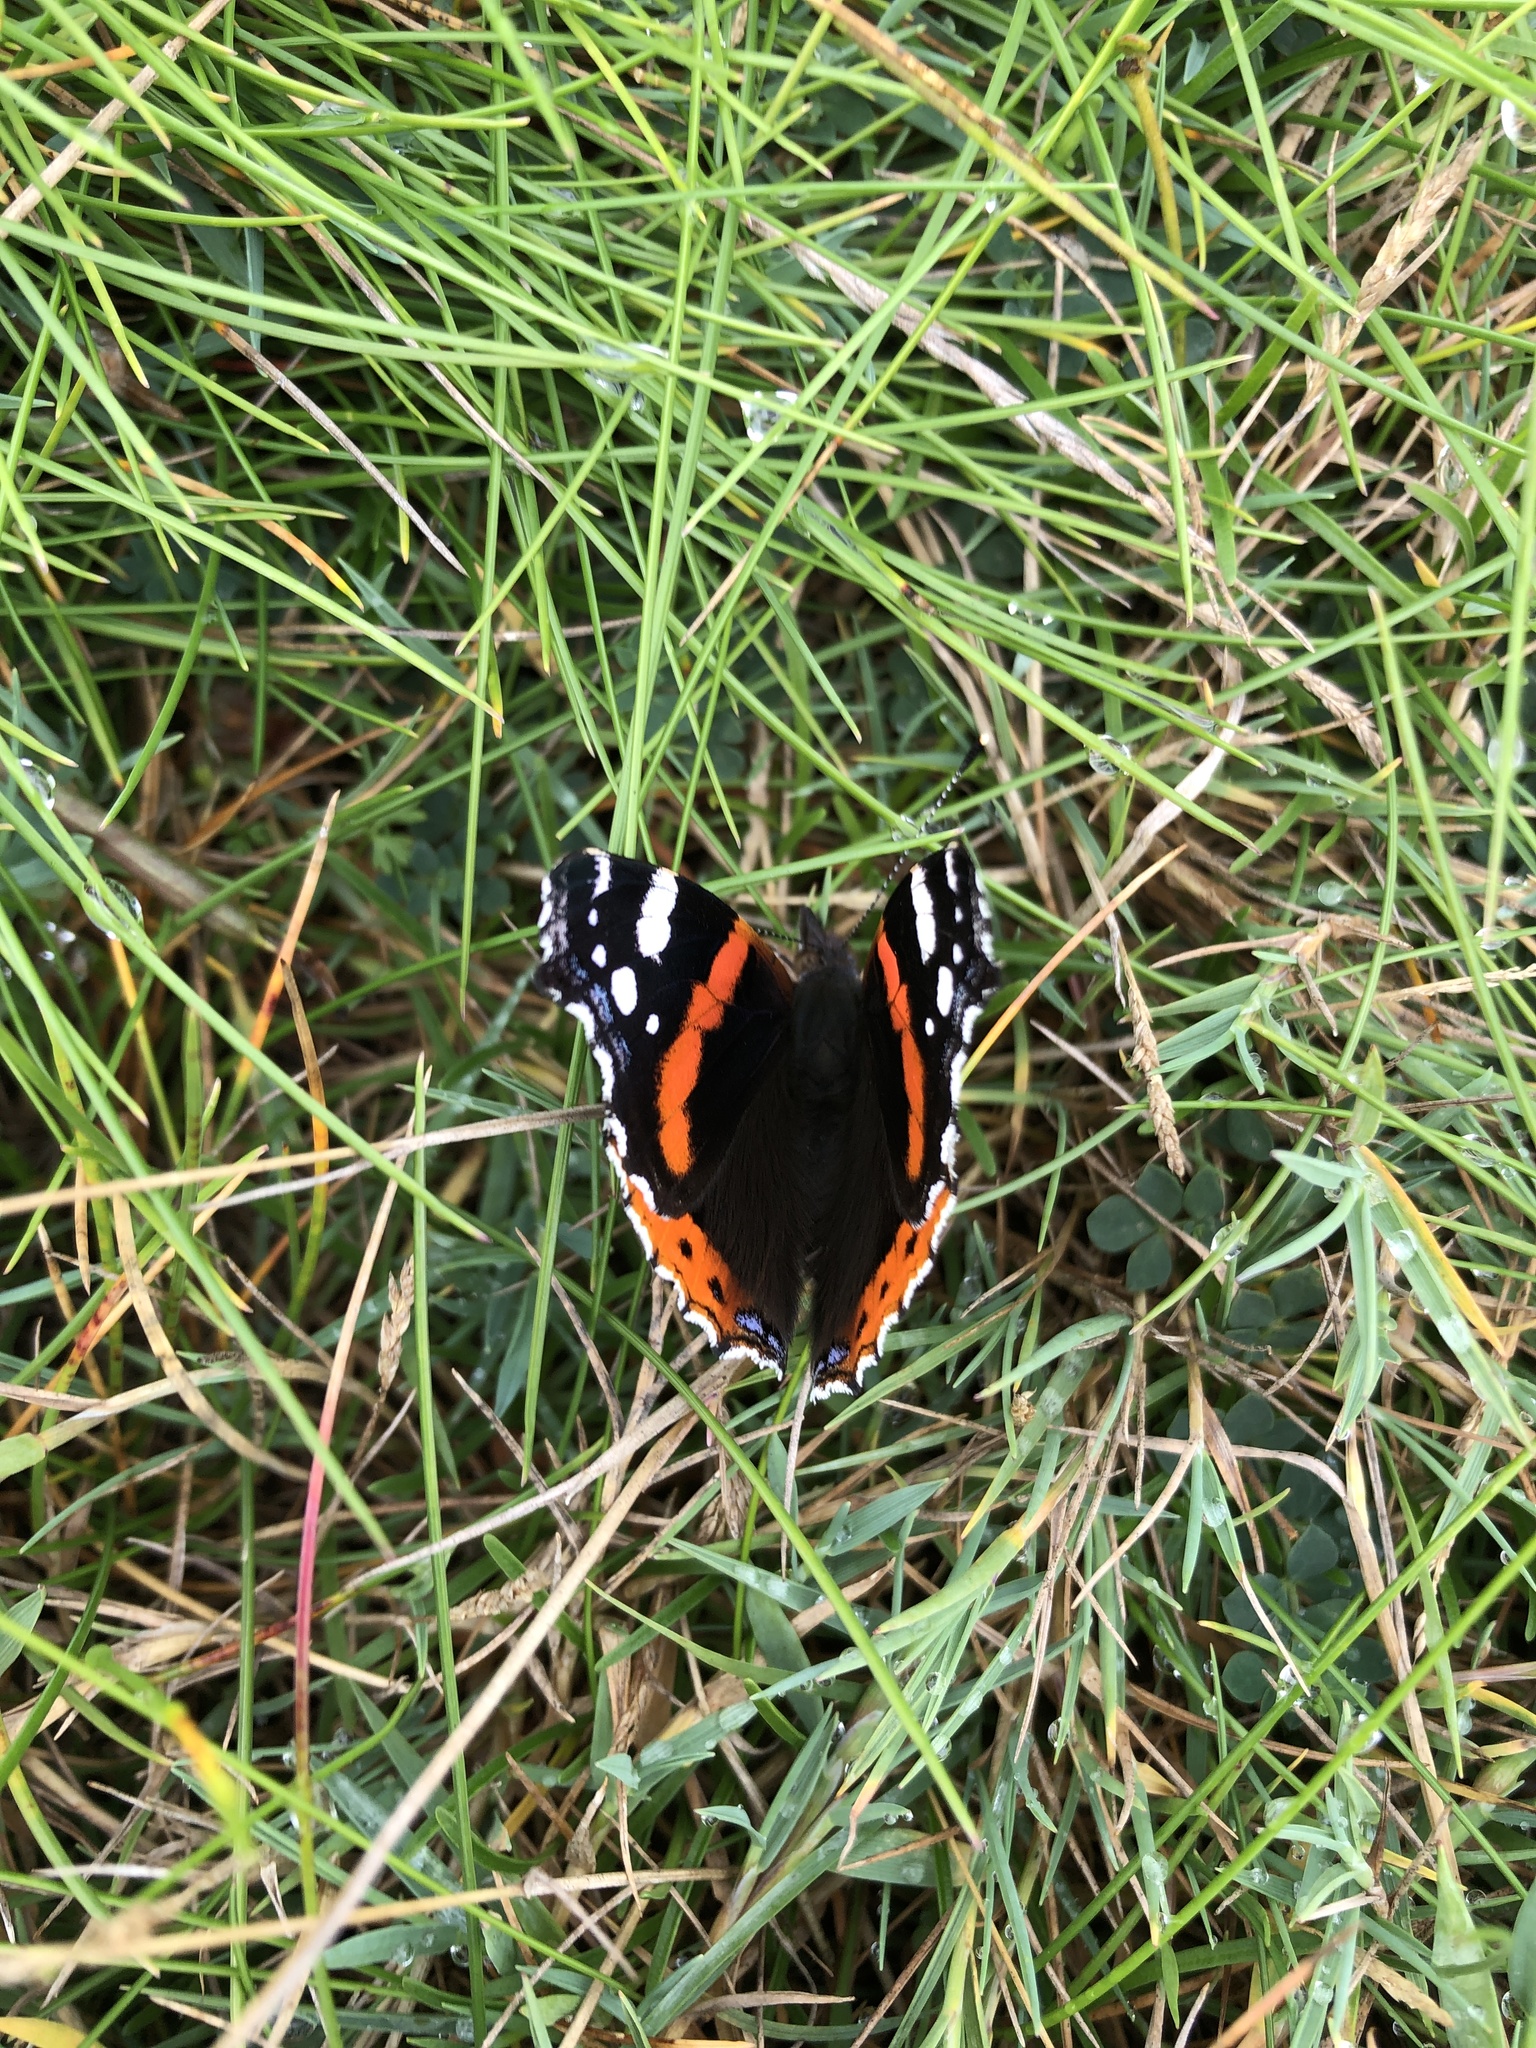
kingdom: Animalia
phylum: Arthropoda
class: Insecta
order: Lepidoptera
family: Nymphalidae
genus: Vanessa
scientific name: Vanessa atalanta
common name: Red admiral
